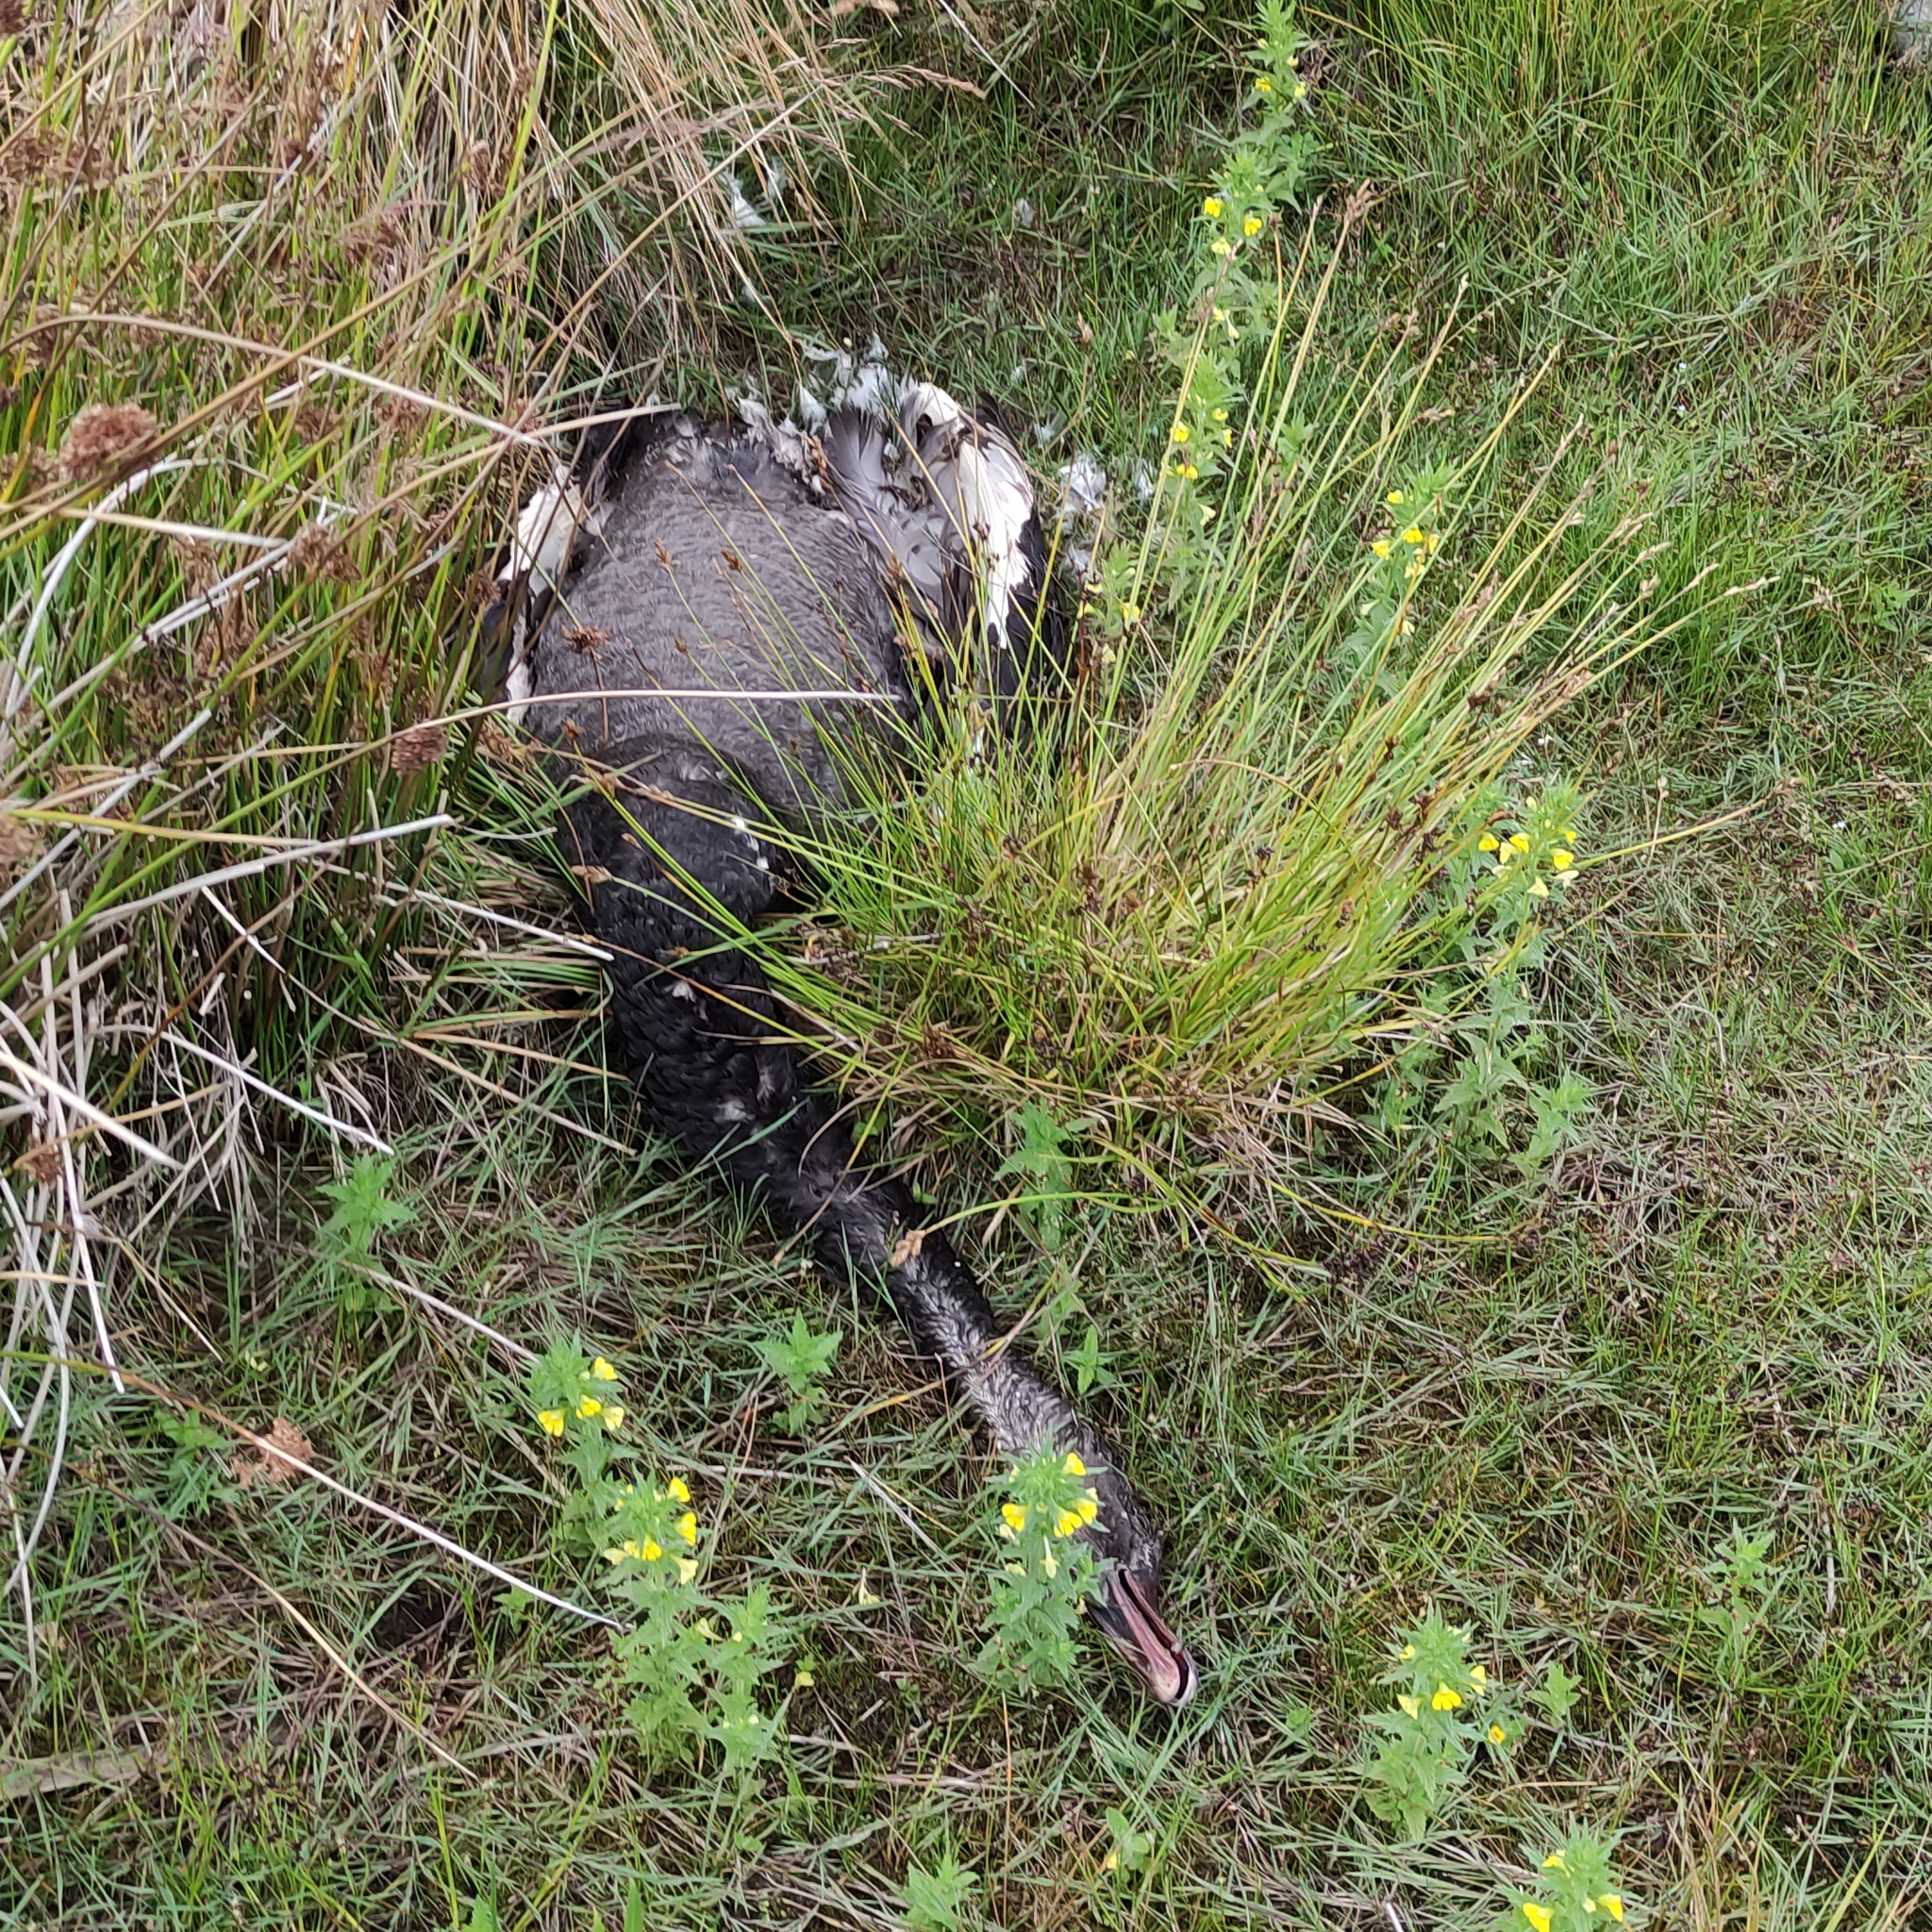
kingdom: Animalia
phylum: Chordata
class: Aves
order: Anseriformes
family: Anatidae
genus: Cygnus
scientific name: Cygnus atratus
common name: Black swan
